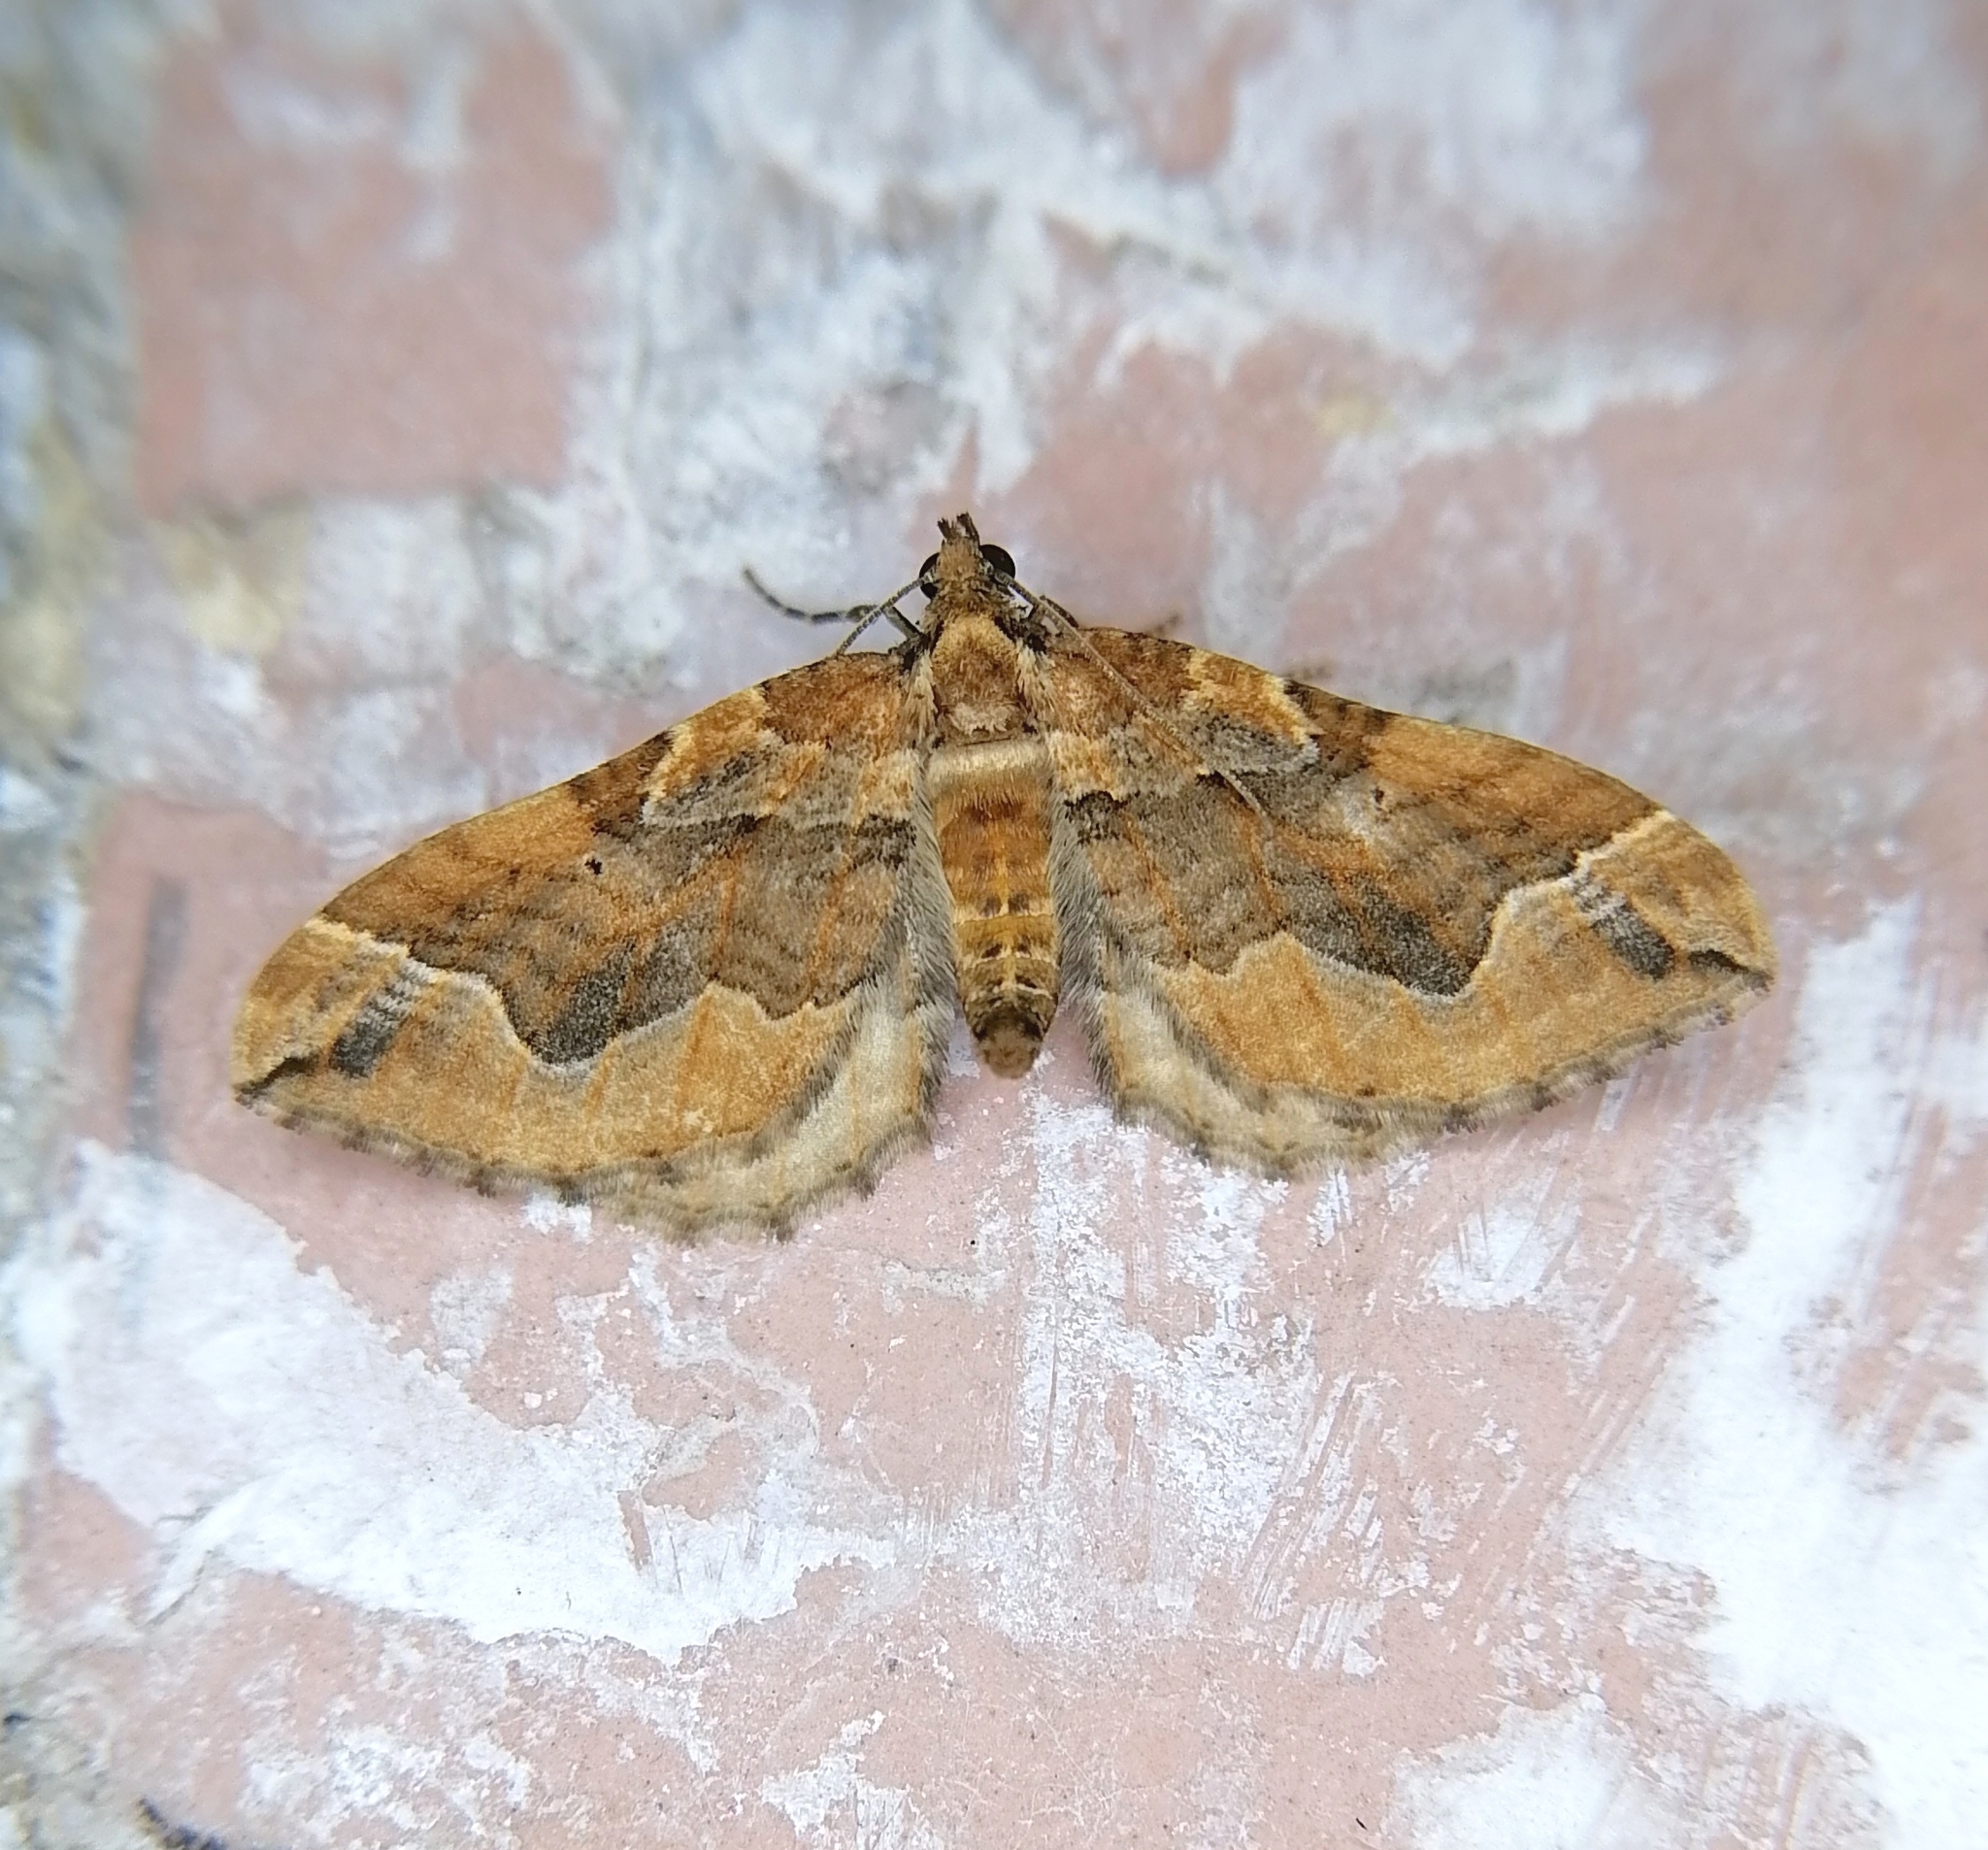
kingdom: Animalia
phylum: Arthropoda
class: Insecta
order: Lepidoptera
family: Geometridae
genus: Pelurga
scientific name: Pelurga comitata
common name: Dark spinach
